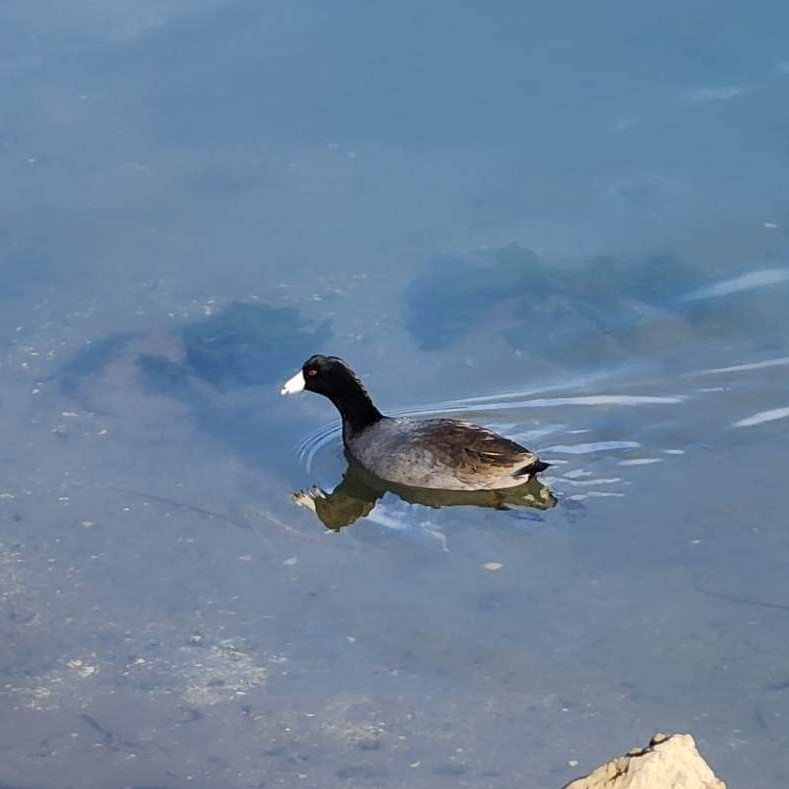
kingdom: Animalia
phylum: Chordata
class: Aves
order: Gruiformes
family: Rallidae
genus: Fulica
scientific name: Fulica americana
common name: American coot
